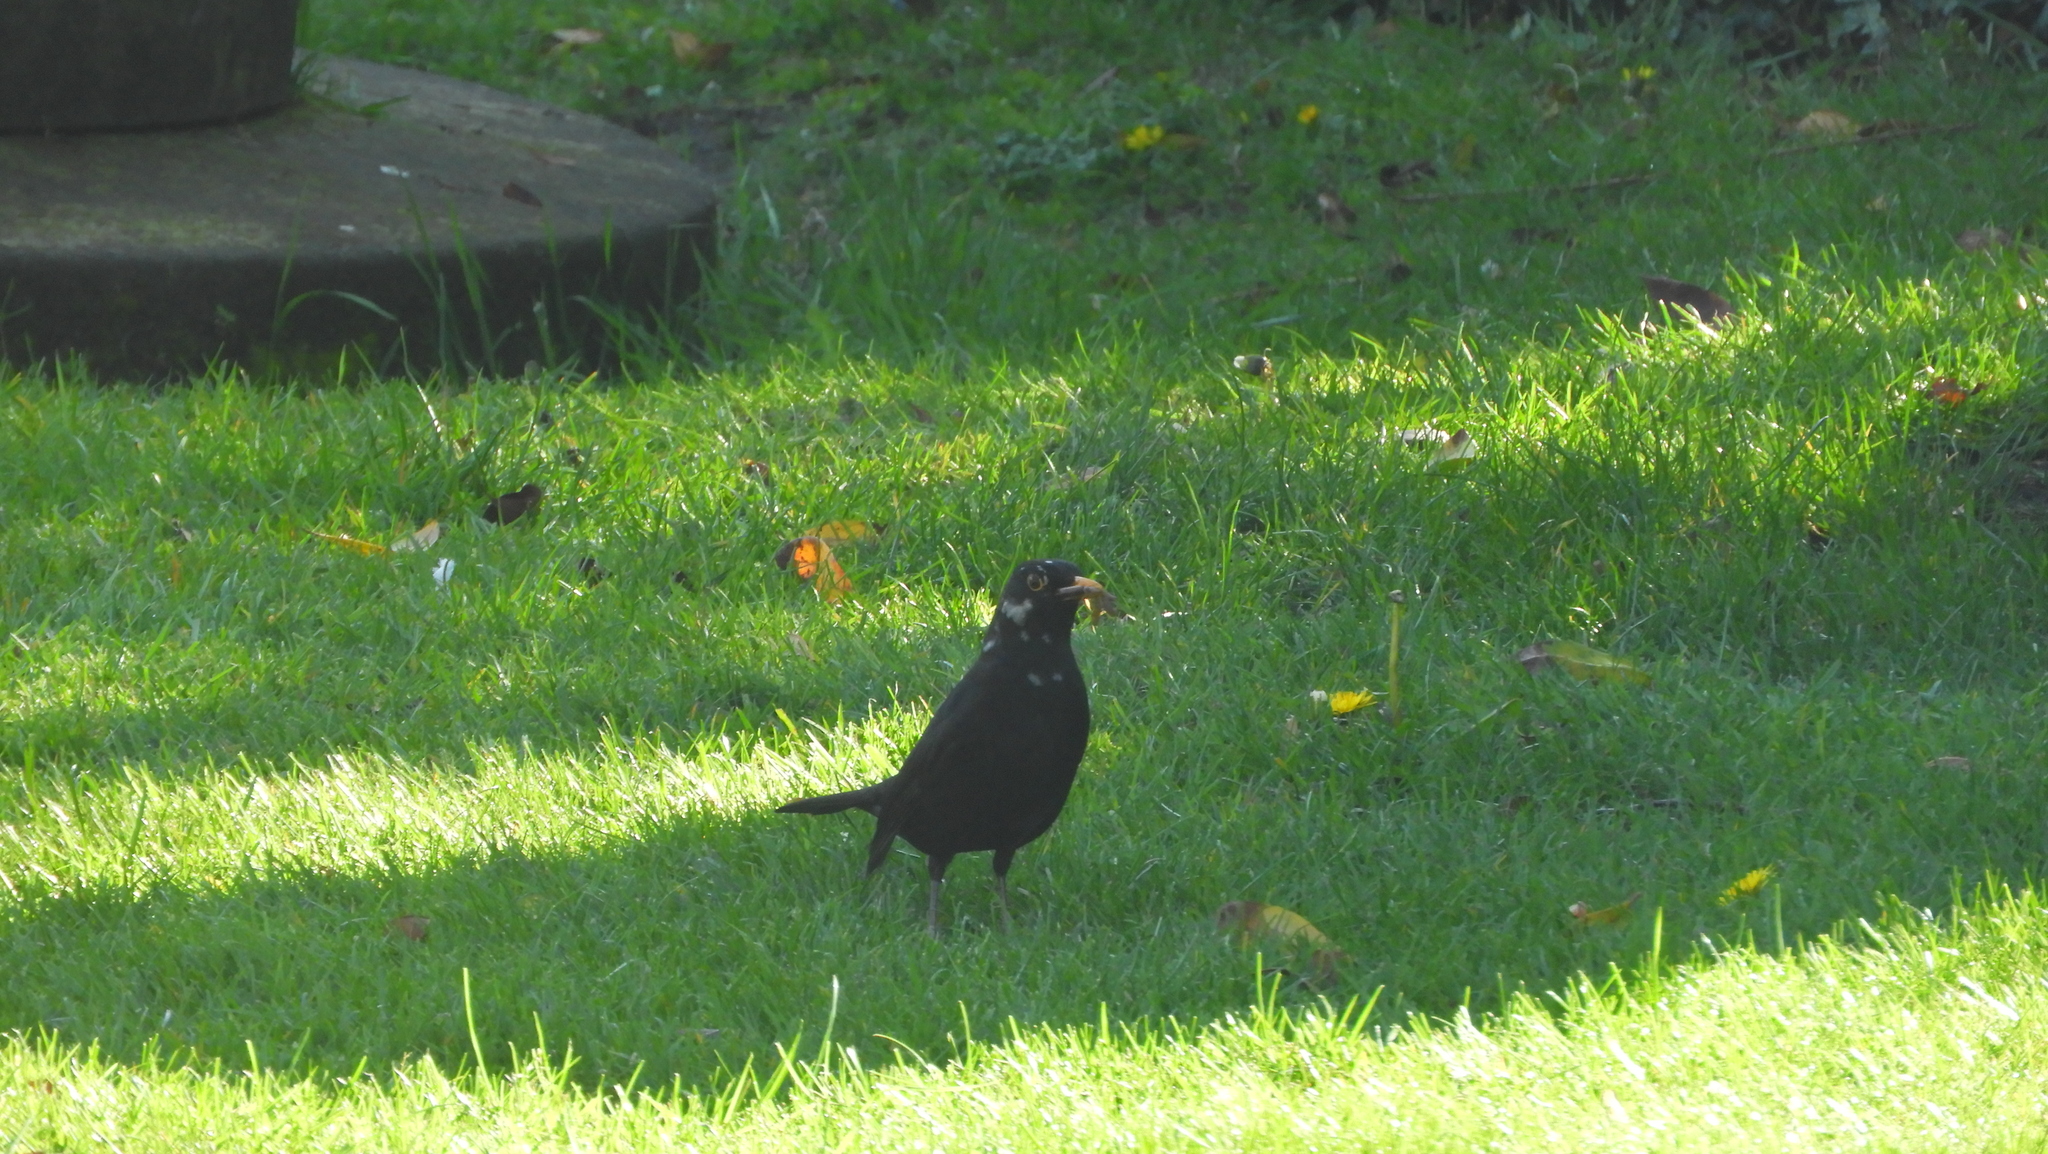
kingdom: Animalia
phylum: Chordata
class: Aves
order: Passeriformes
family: Turdidae
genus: Turdus
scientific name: Turdus merula
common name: Common blackbird
